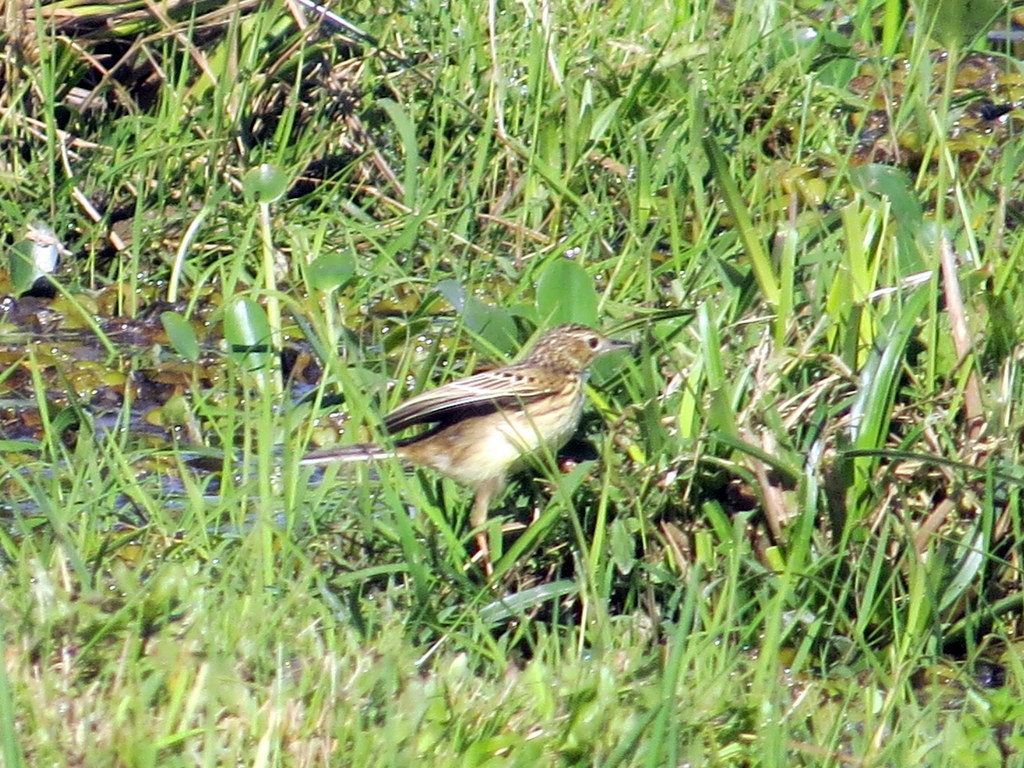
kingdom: Animalia
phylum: Chordata
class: Aves
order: Passeriformes
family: Motacillidae
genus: Anthus
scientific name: Anthus chii
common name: Yellowish pipit
